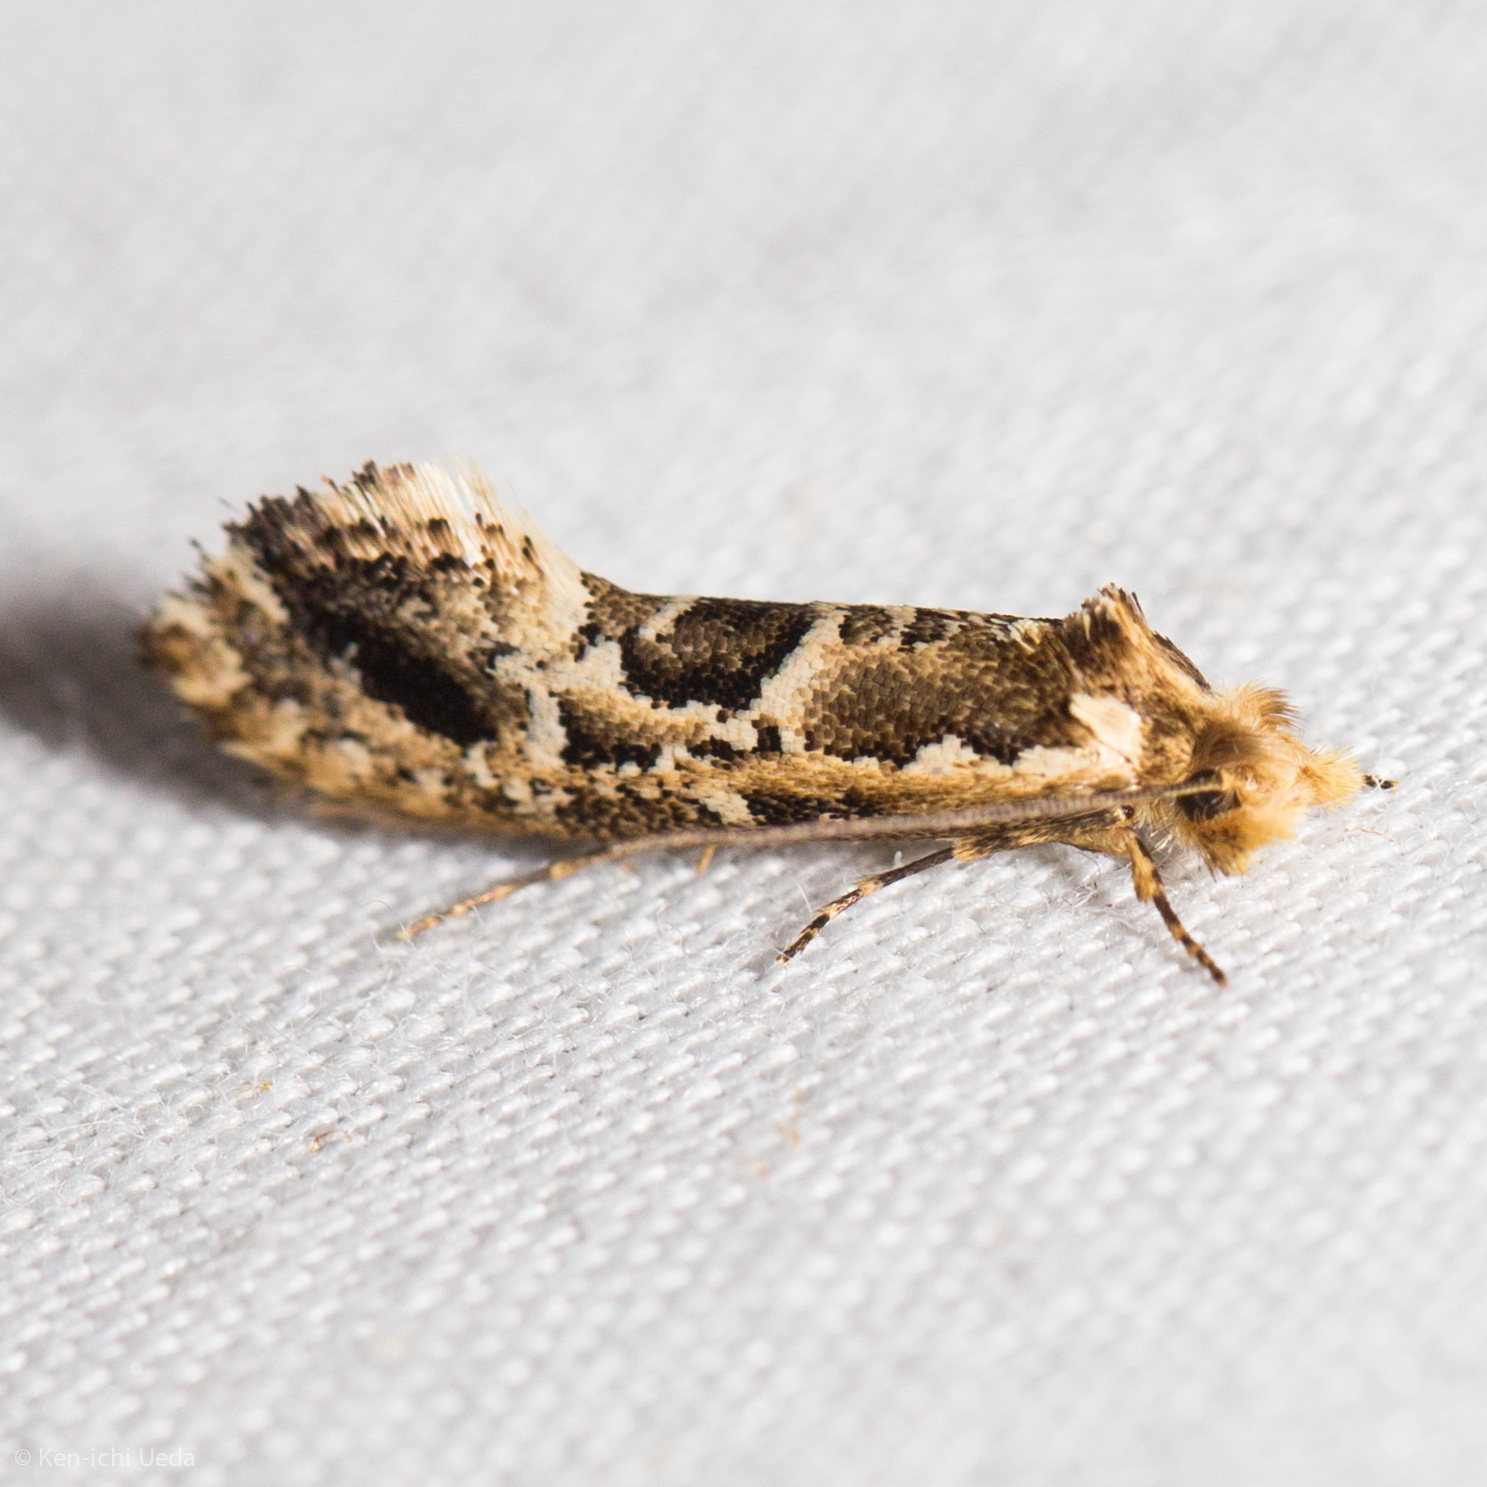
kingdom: Animalia
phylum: Arthropoda
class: Insecta
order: Lepidoptera
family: Tineidae
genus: Moerarchis
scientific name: Moerarchis inconcisella
